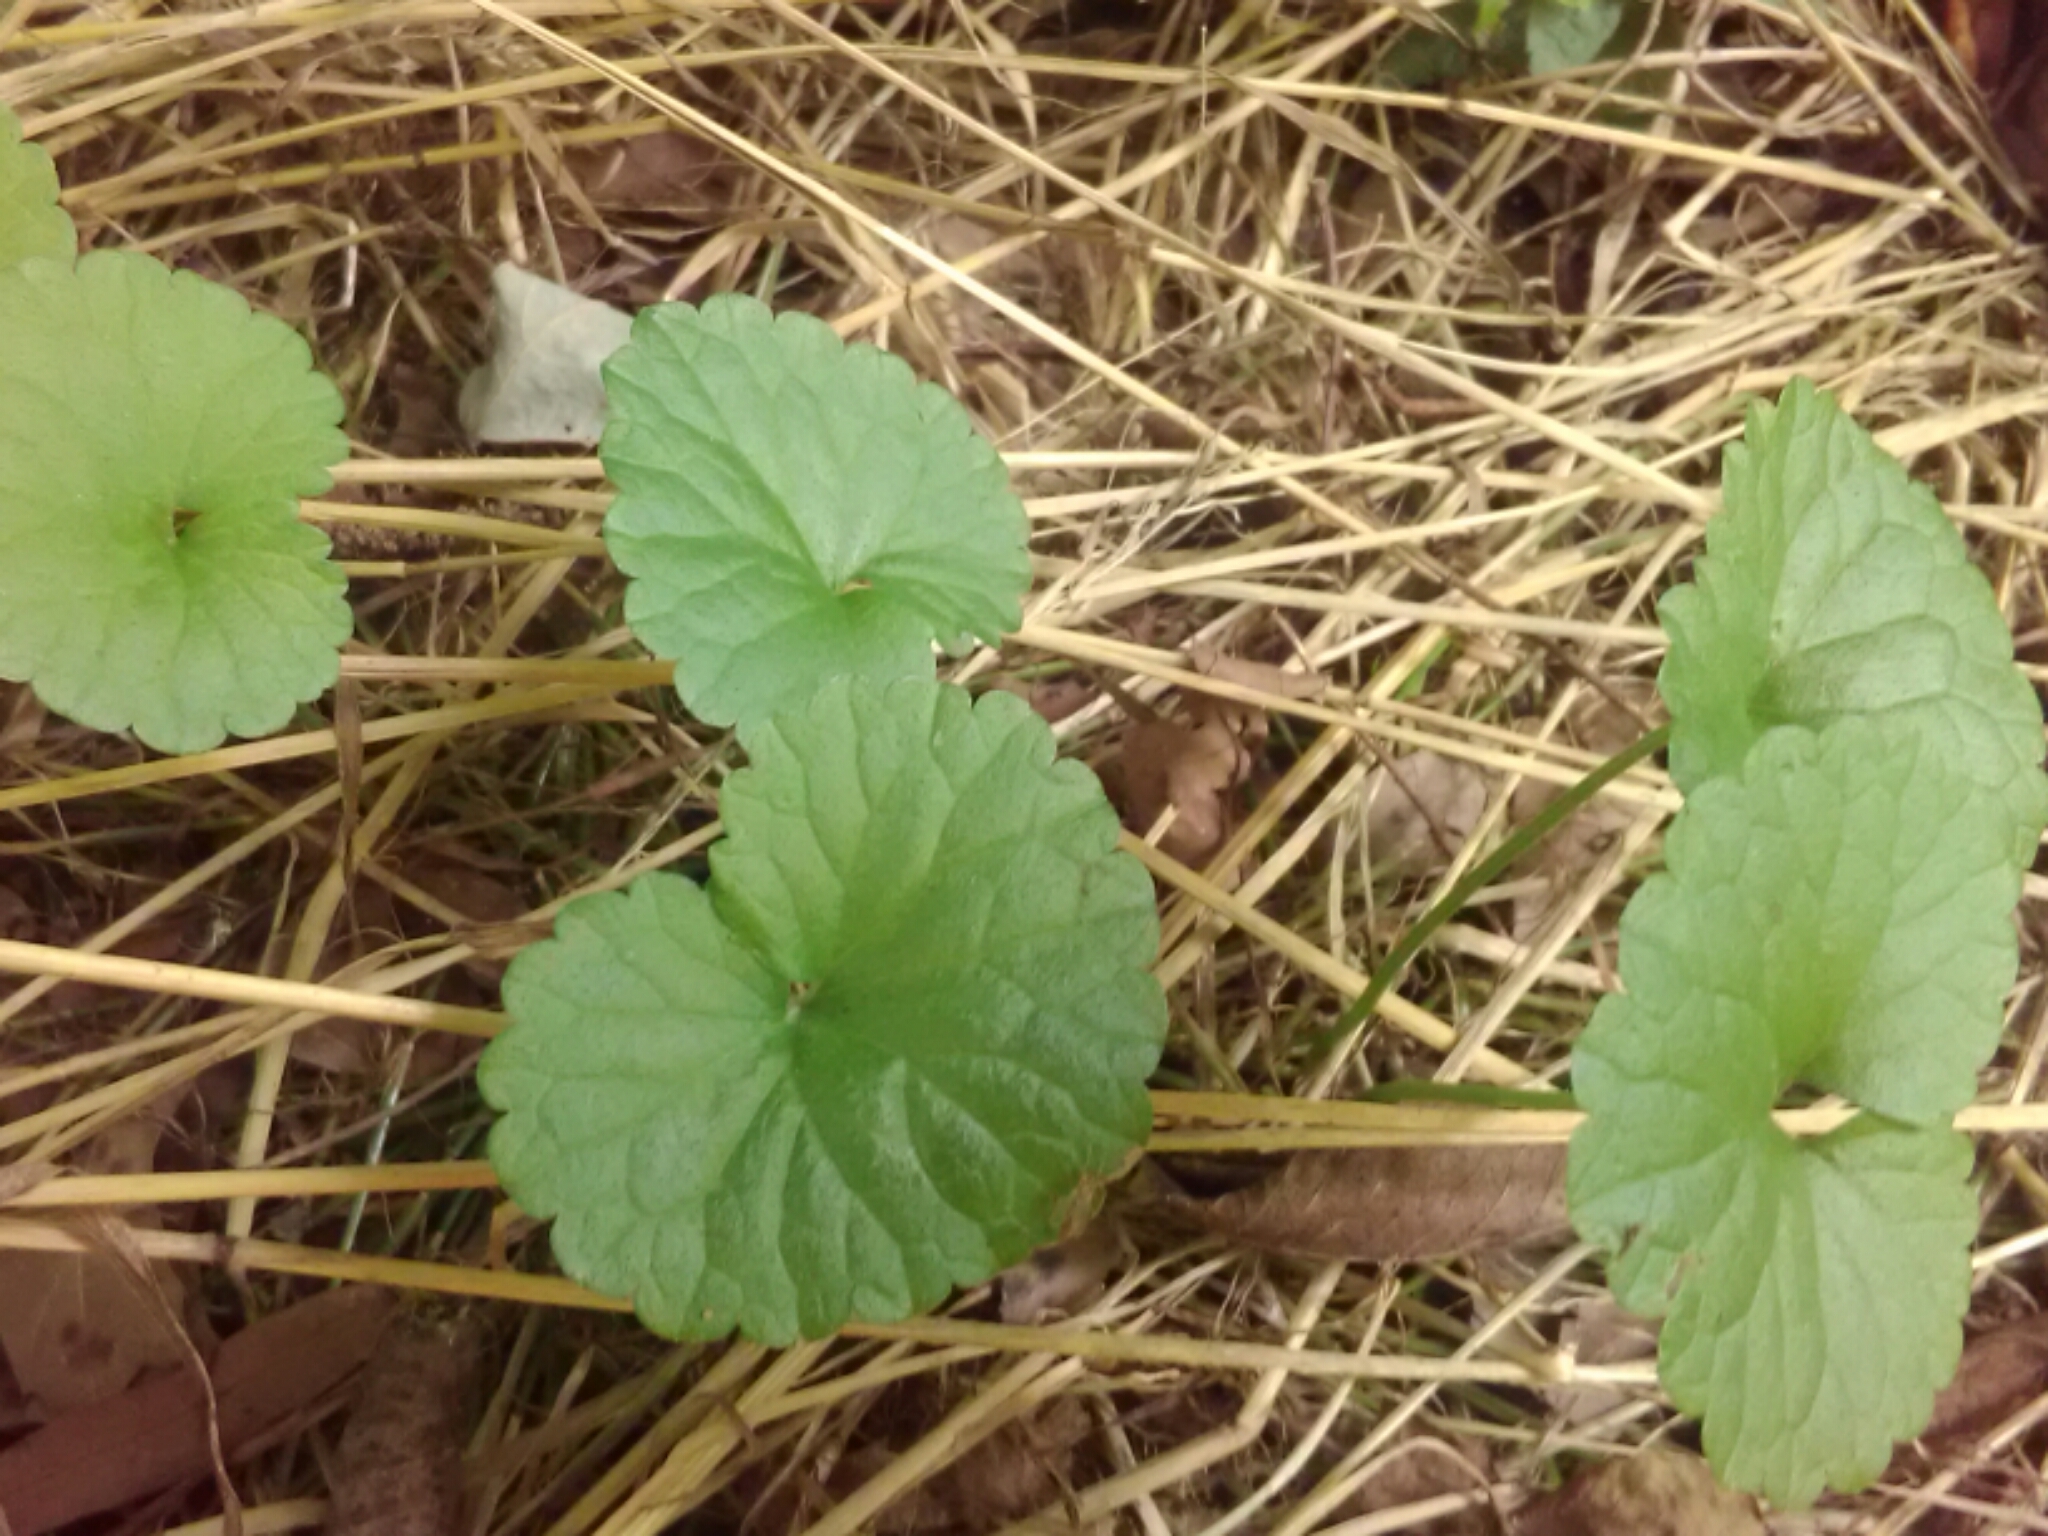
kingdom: Plantae
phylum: Tracheophyta
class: Magnoliopsida
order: Lamiales
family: Lamiaceae
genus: Glechoma
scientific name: Glechoma hederacea
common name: Ground ivy
